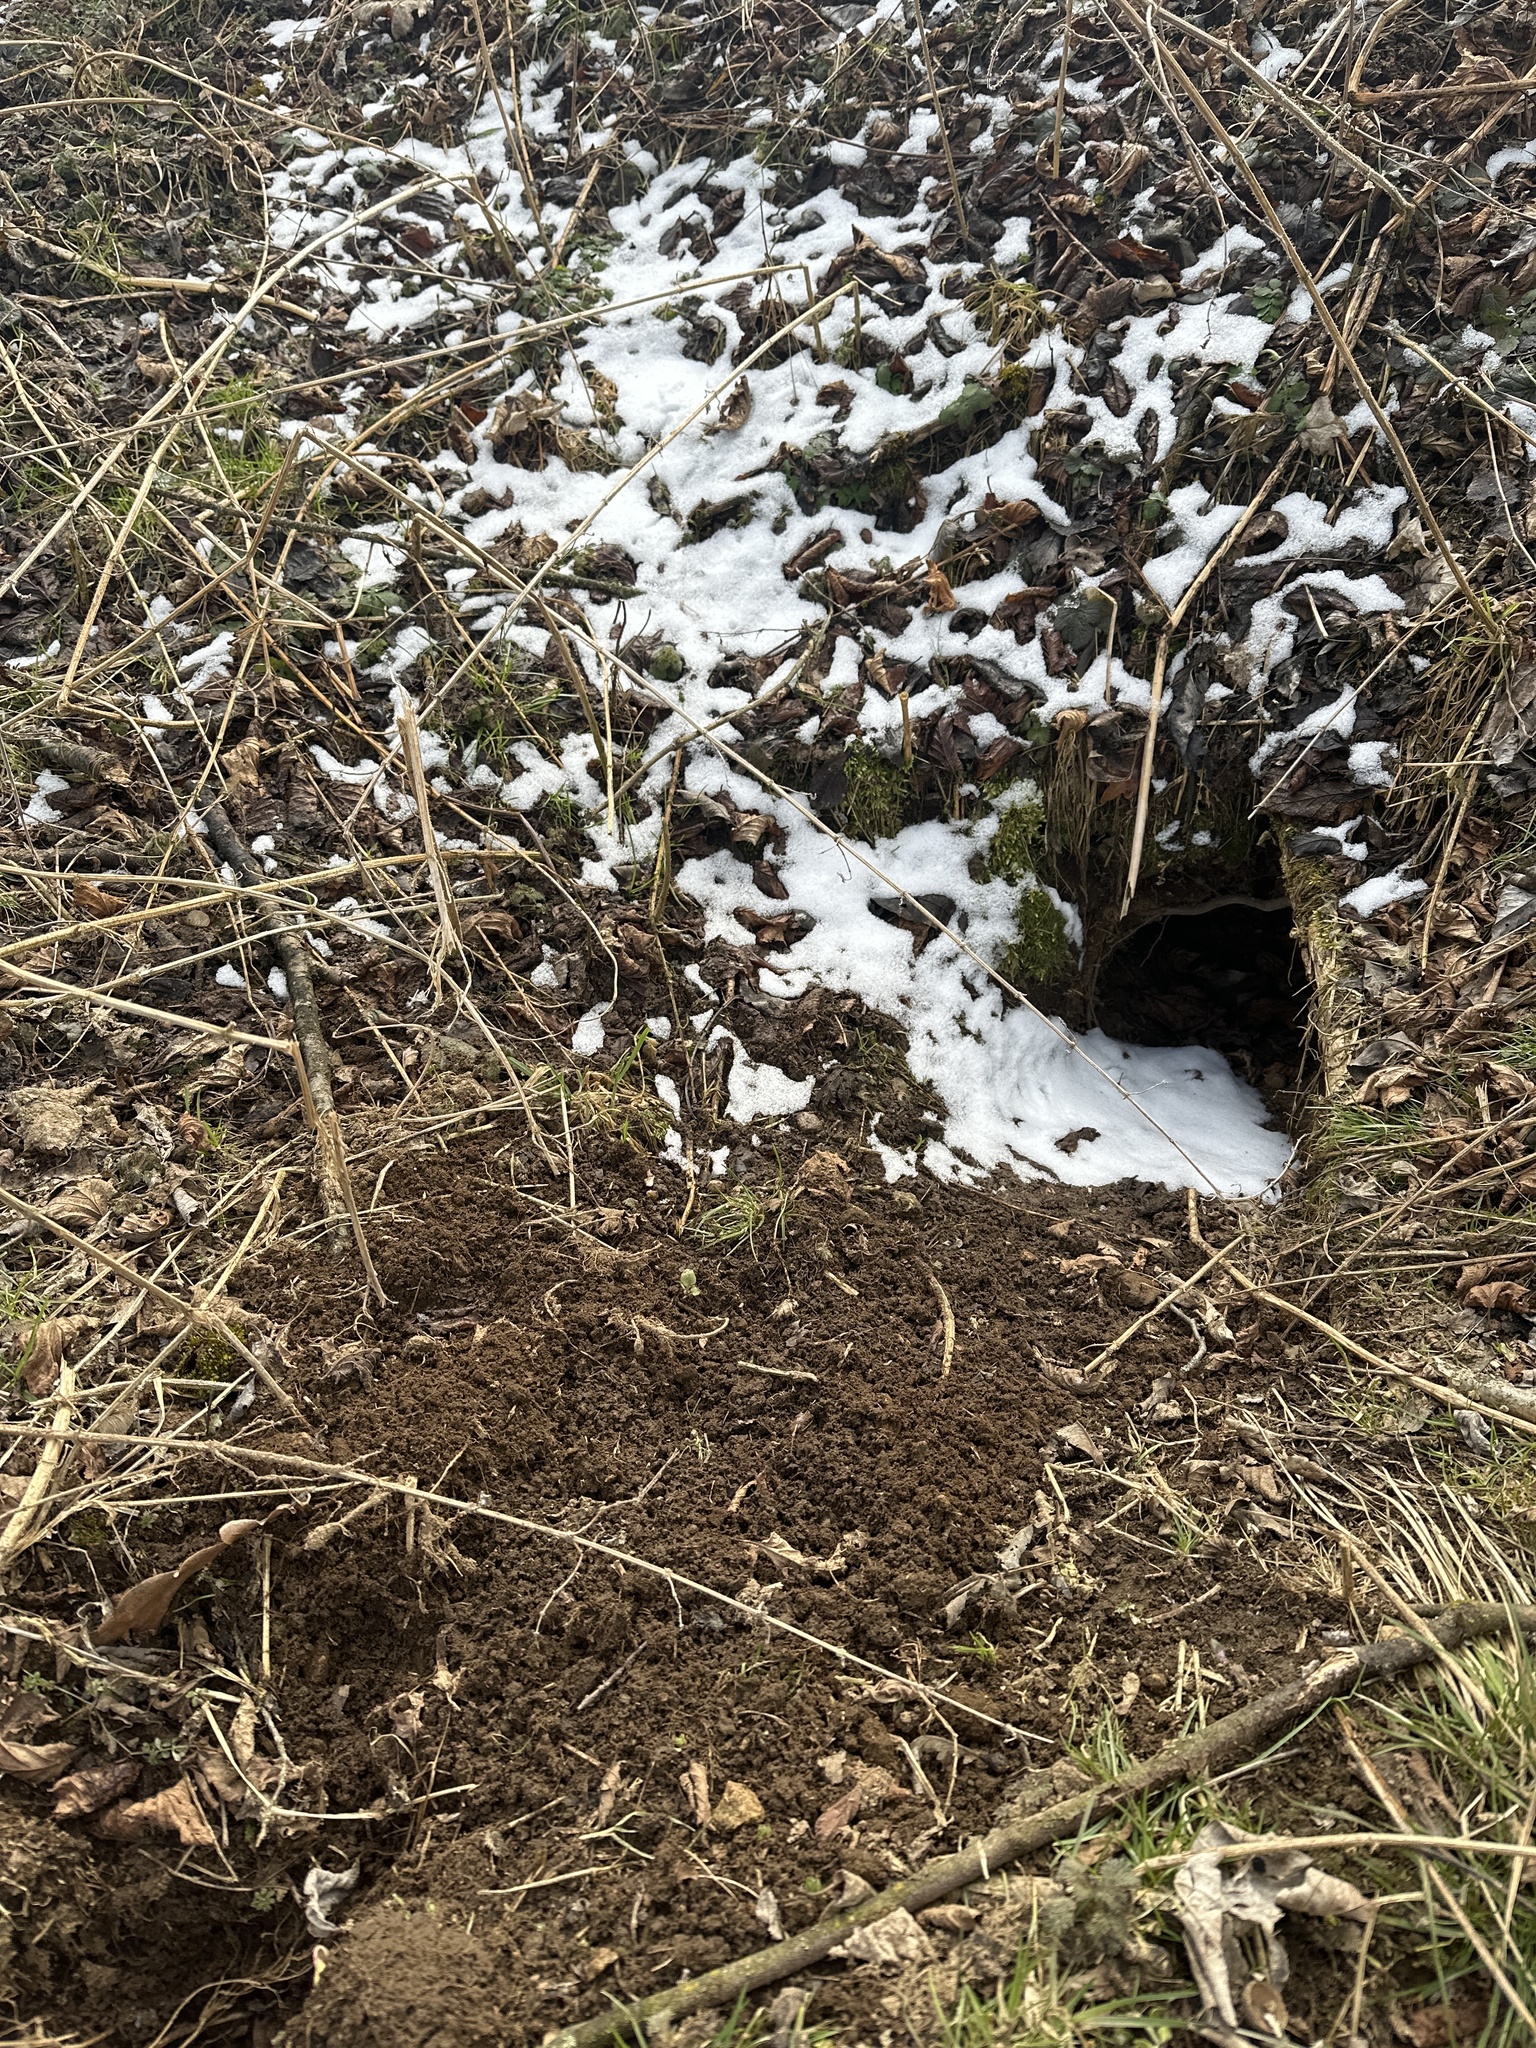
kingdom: Animalia
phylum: Chordata
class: Mammalia
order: Carnivora
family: Mustelidae
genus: Meles
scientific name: Meles meles
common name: Eurasian badger
